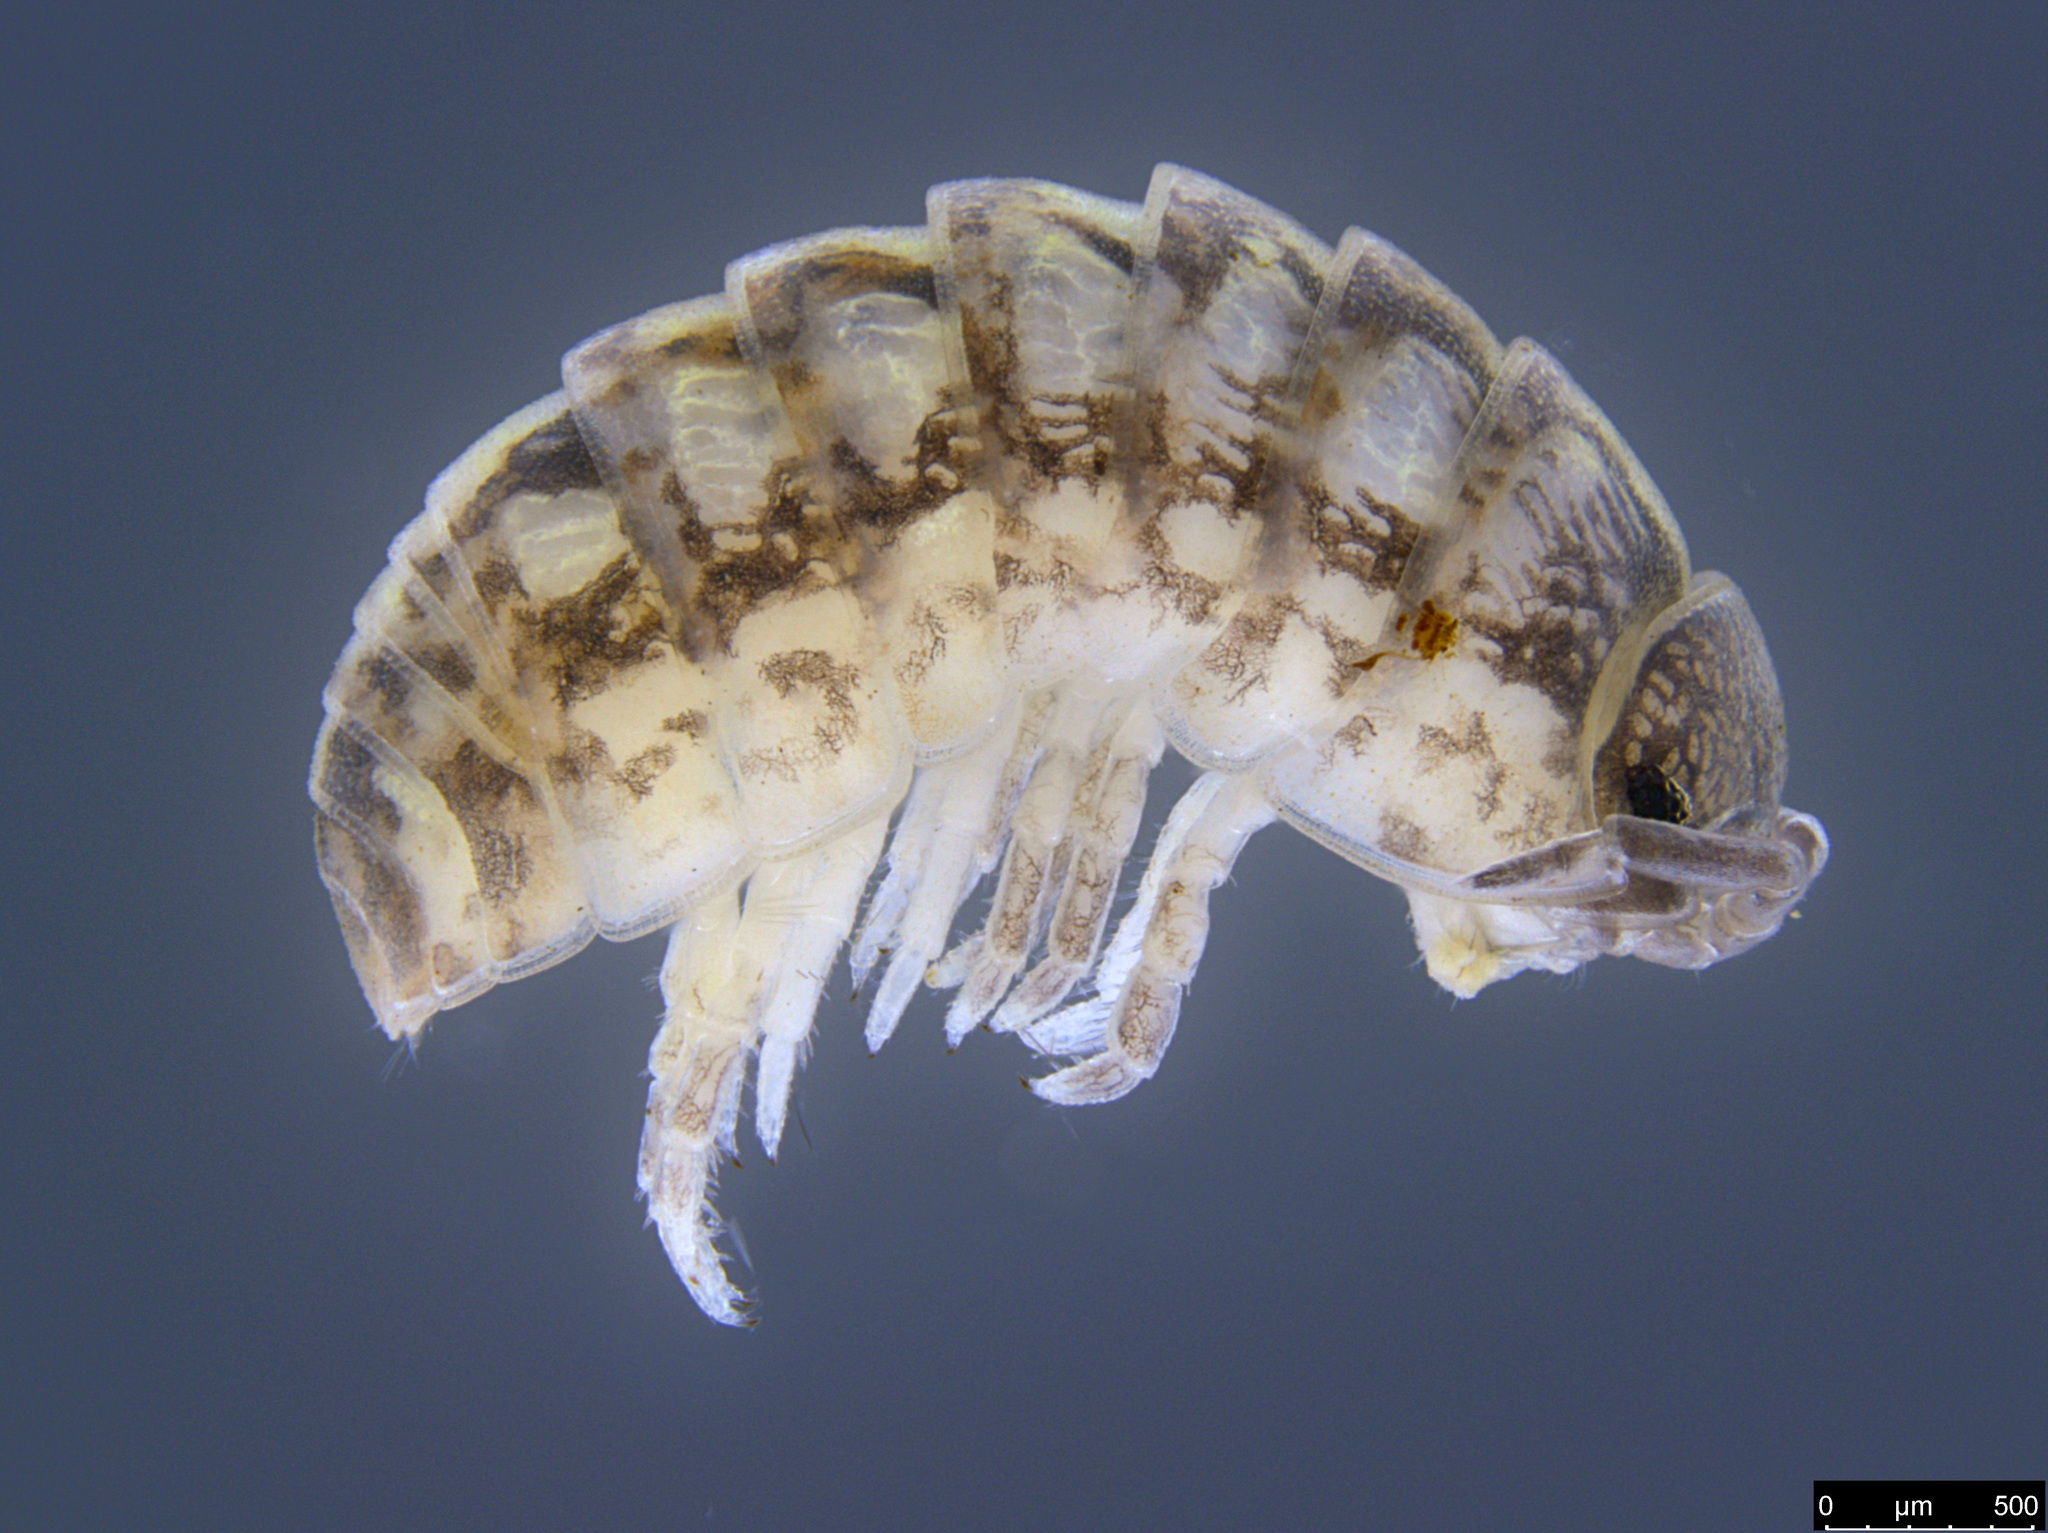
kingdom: Animalia
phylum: Arthropoda
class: Malacostraca
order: Isopoda
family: Armadillidiidae
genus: Armadillidium
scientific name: Armadillidium vulgare
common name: Common pill woodlouse
